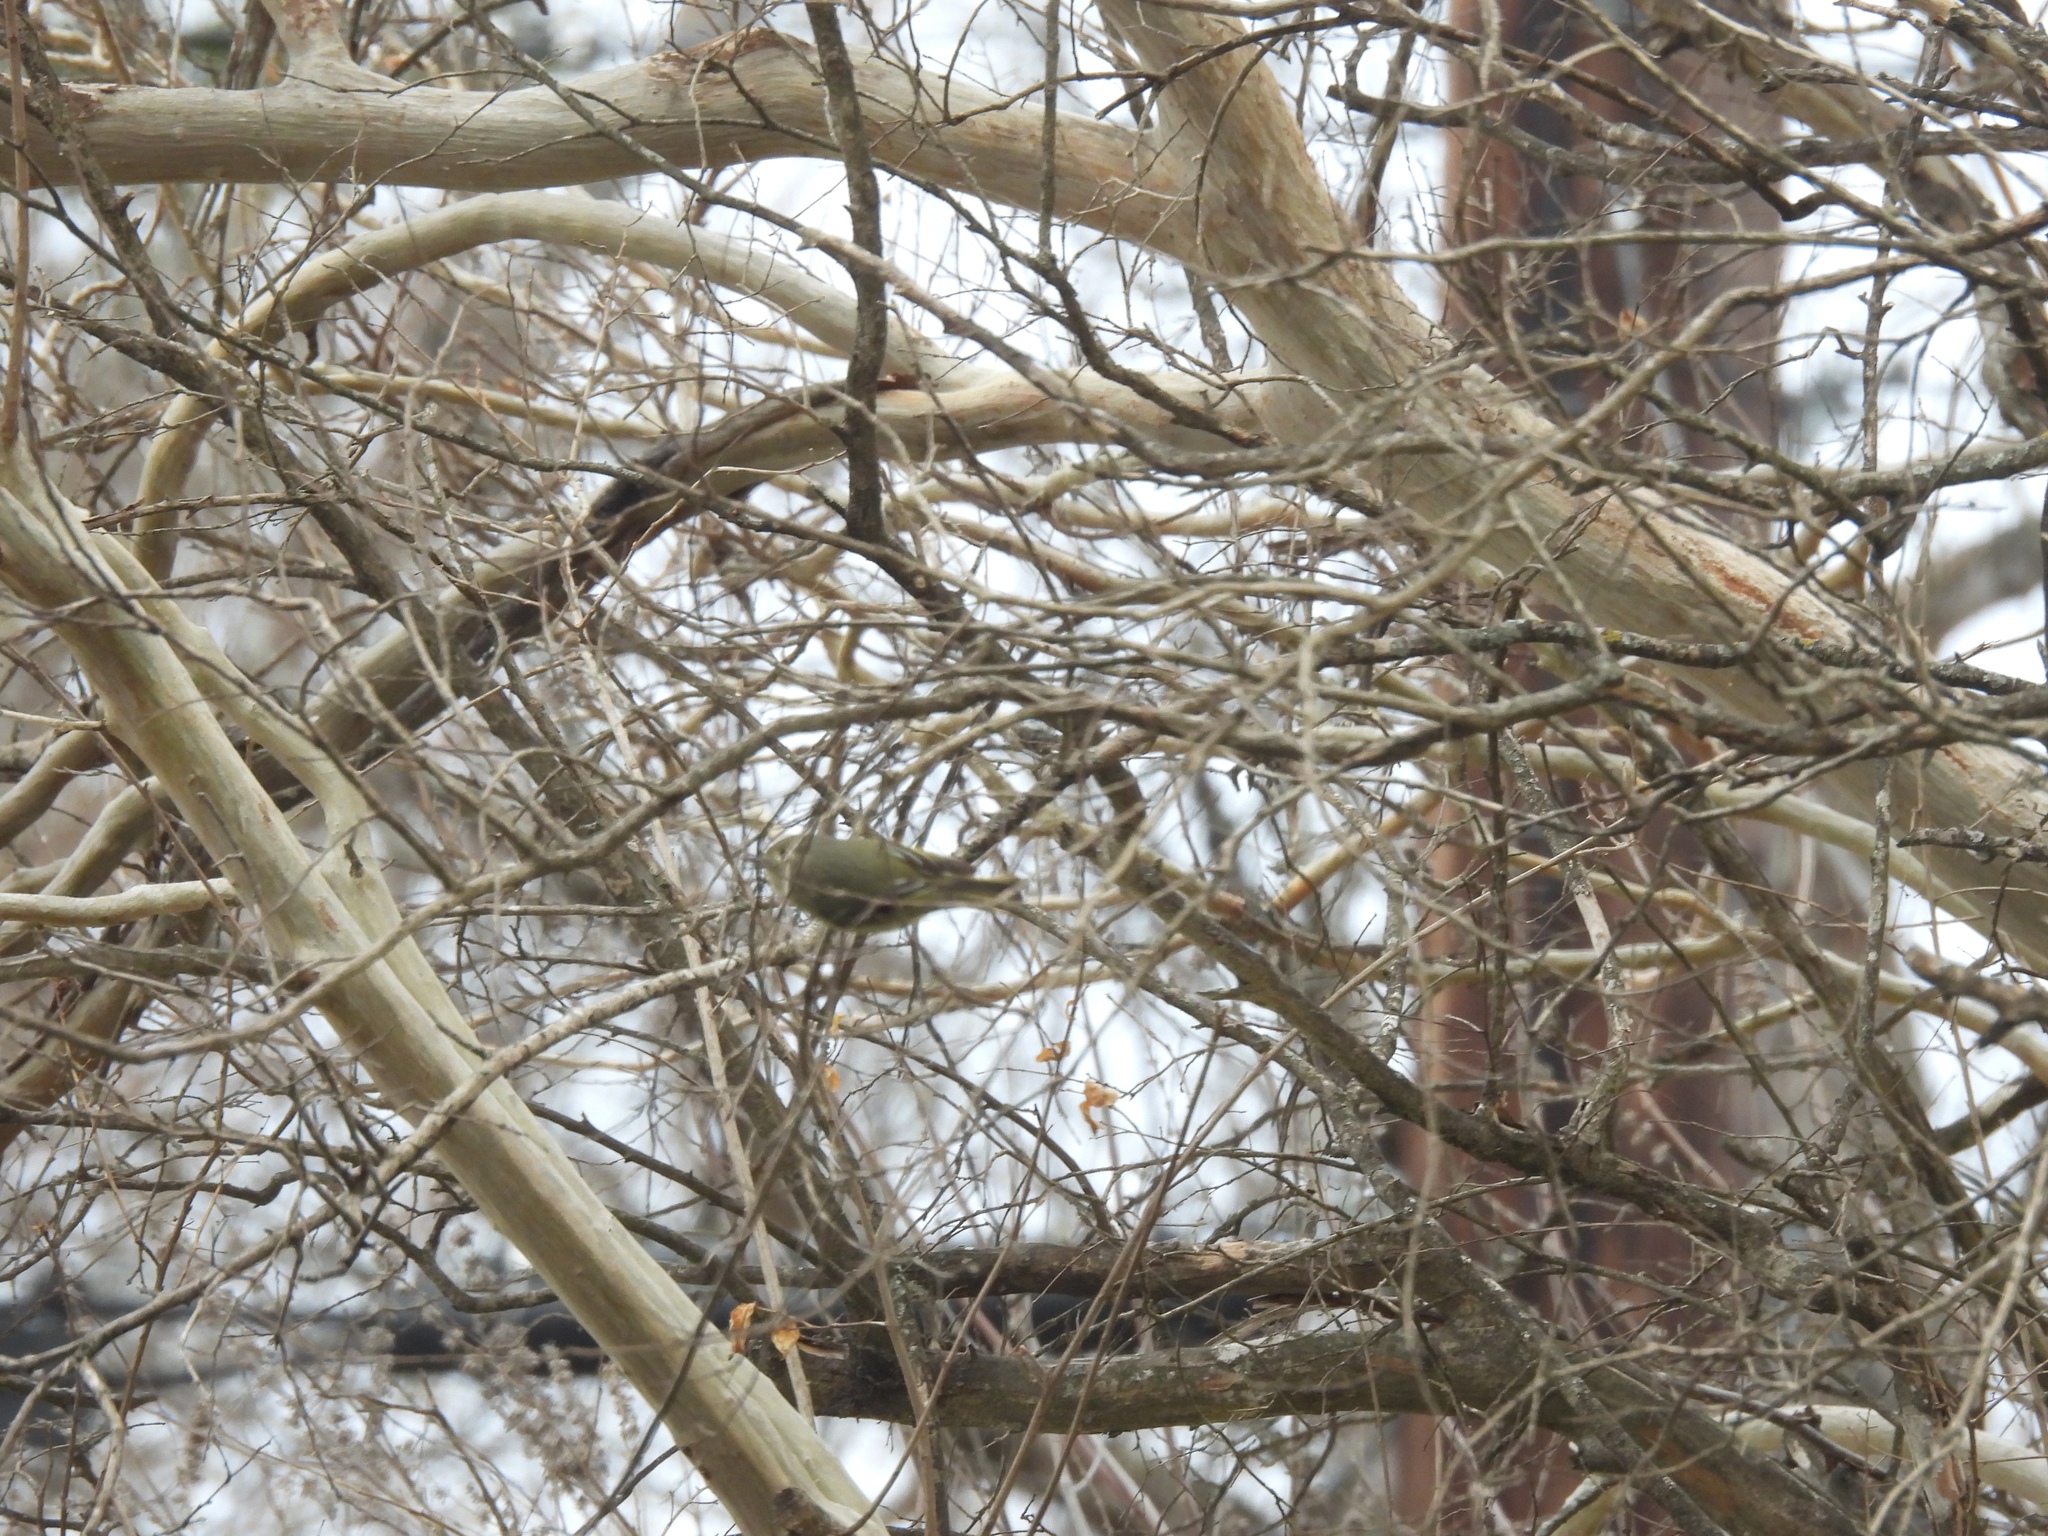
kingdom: Animalia
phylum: Chordata
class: Aves
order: Passeriformes
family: Regulidae
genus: Regulus
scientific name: Regulus calendula
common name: Ruby-crowned kinglet
